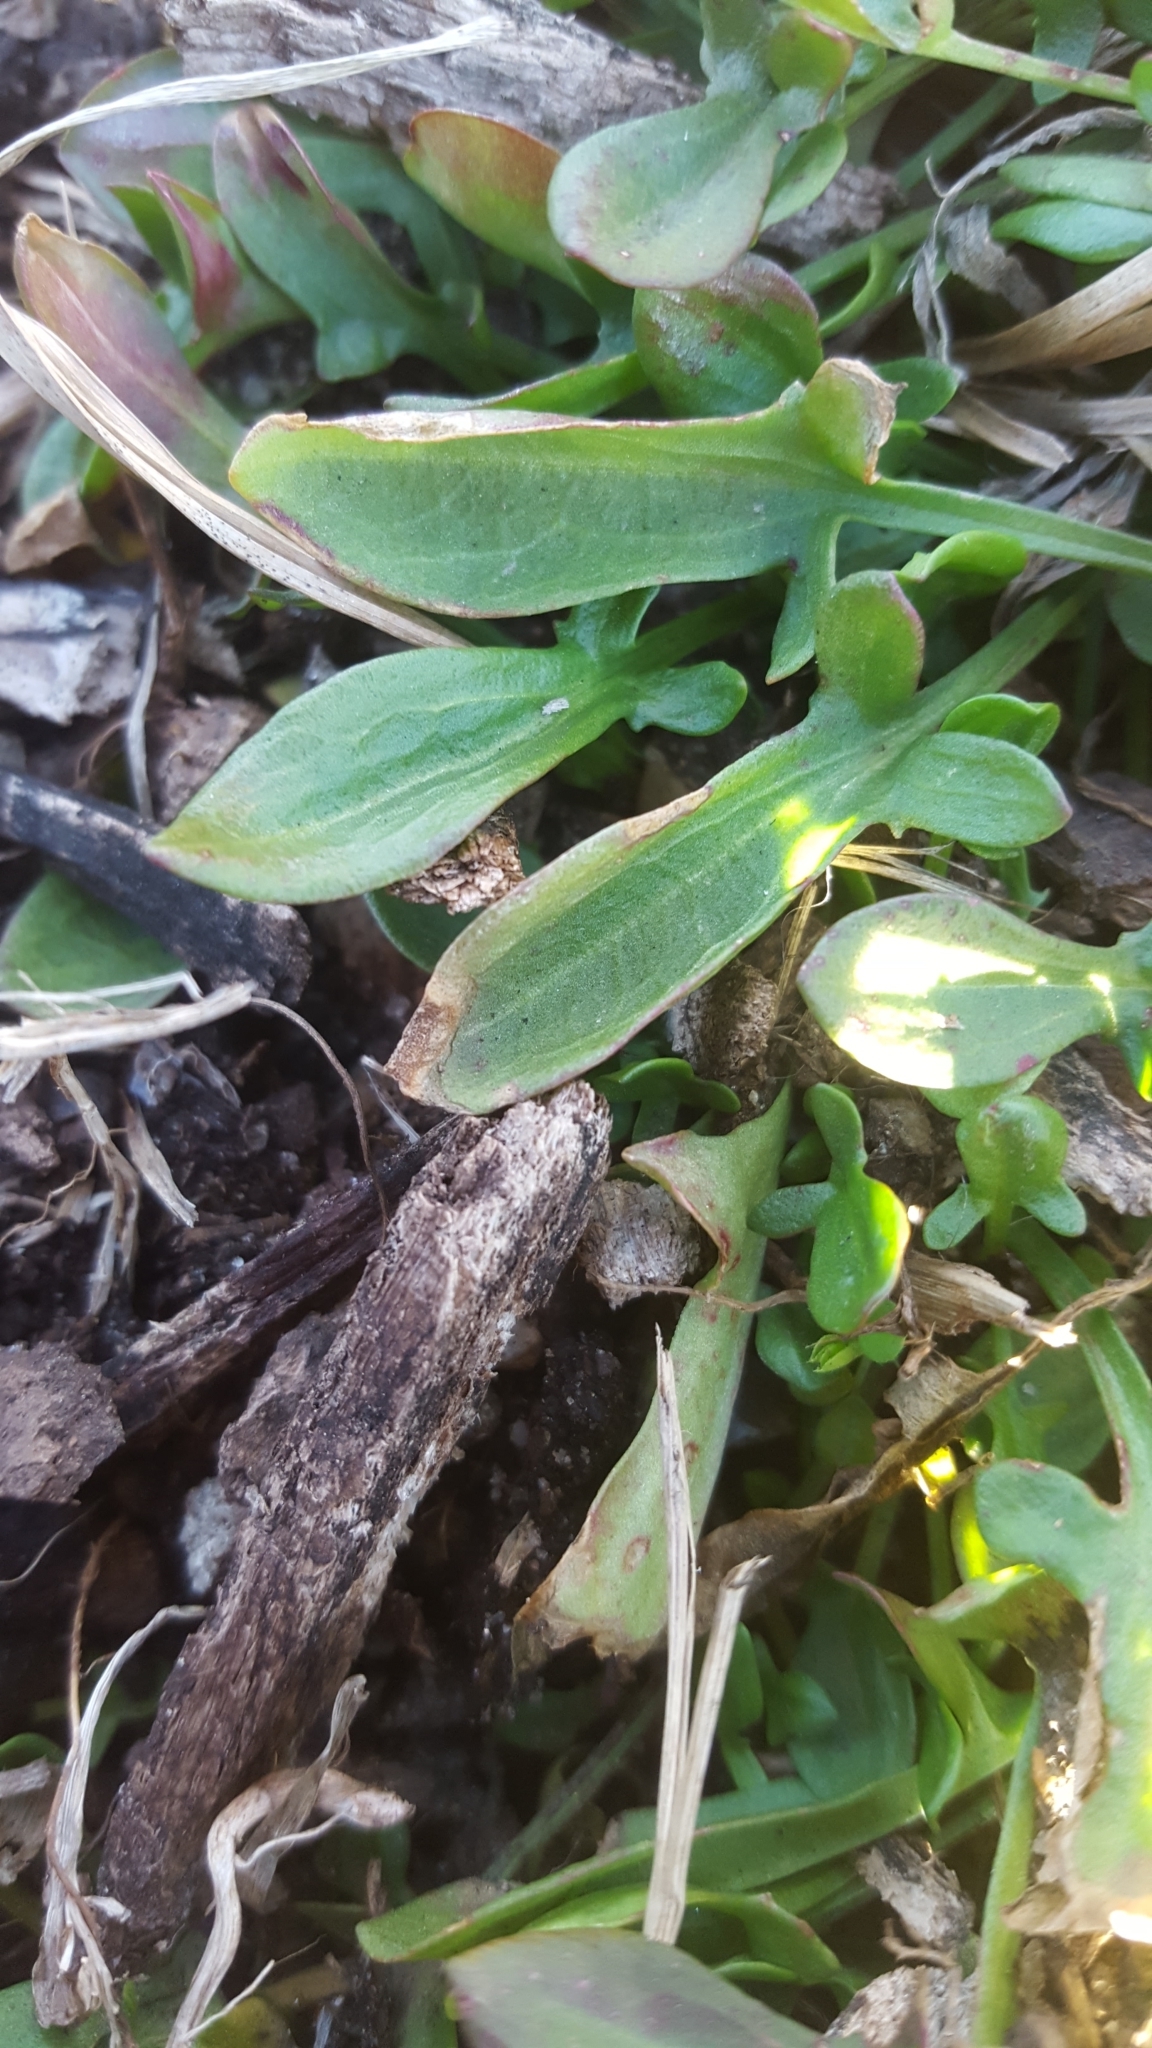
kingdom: Plantae
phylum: Tracheophyta
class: Magnoliopsida
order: Caryophyllales
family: Polygonaceae
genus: Rumex
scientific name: Rumex acetosella
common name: Common sheep sorrel
